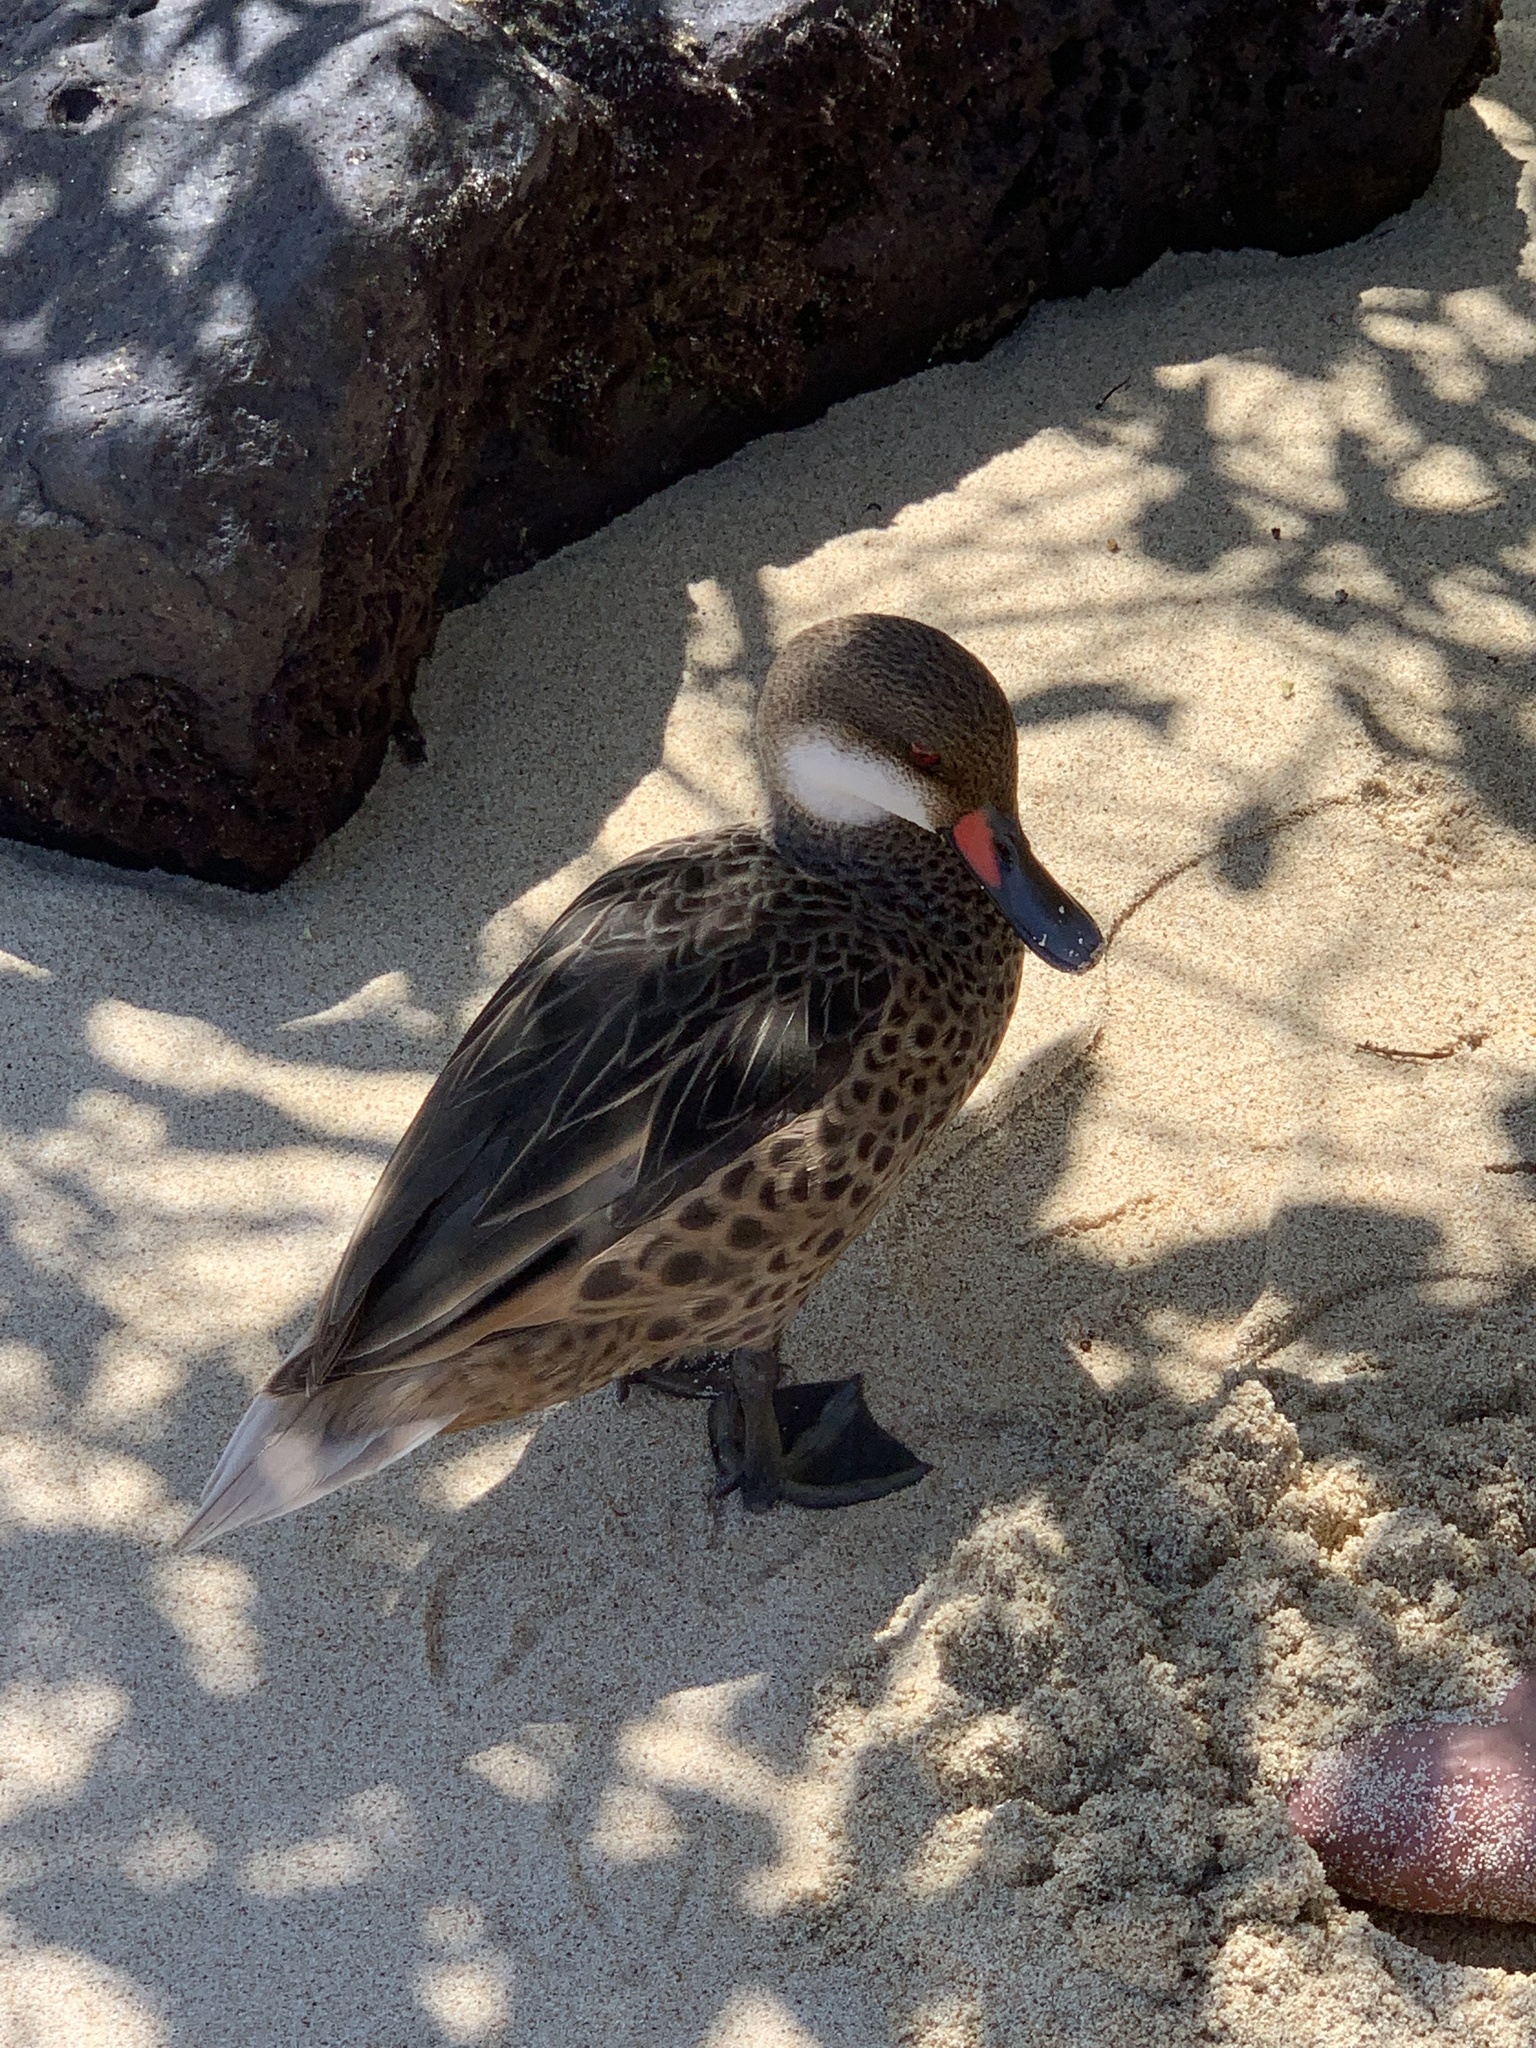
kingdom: Animalia
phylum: Chordata
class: Aves
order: Anseriformes
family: Anatidae
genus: Anas
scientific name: Anas bahamensis
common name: White-cheeked pintail
